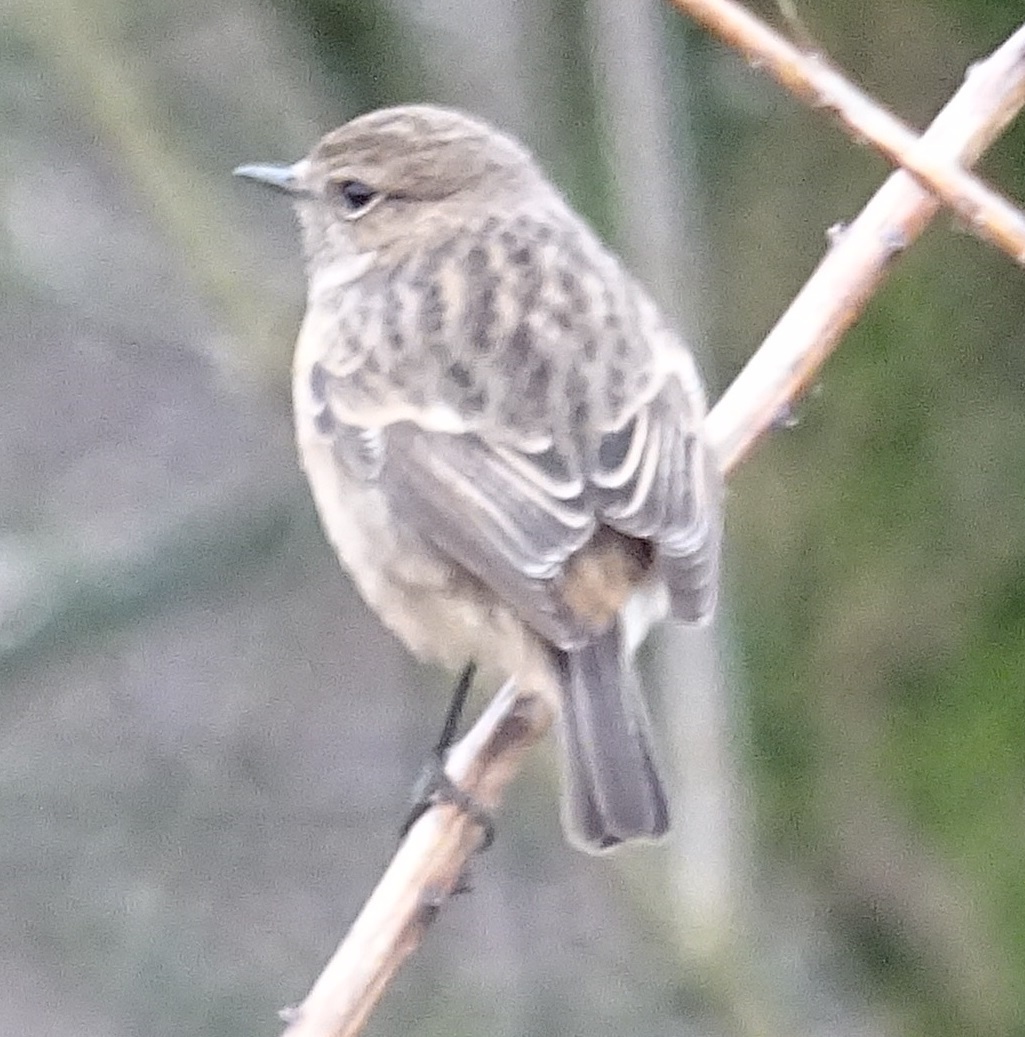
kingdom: Animalia
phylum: Chordata
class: Aves
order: Passeriformes
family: Muscicapidae
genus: Saxicola
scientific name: Saxicola rubicola
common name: European stonechat
